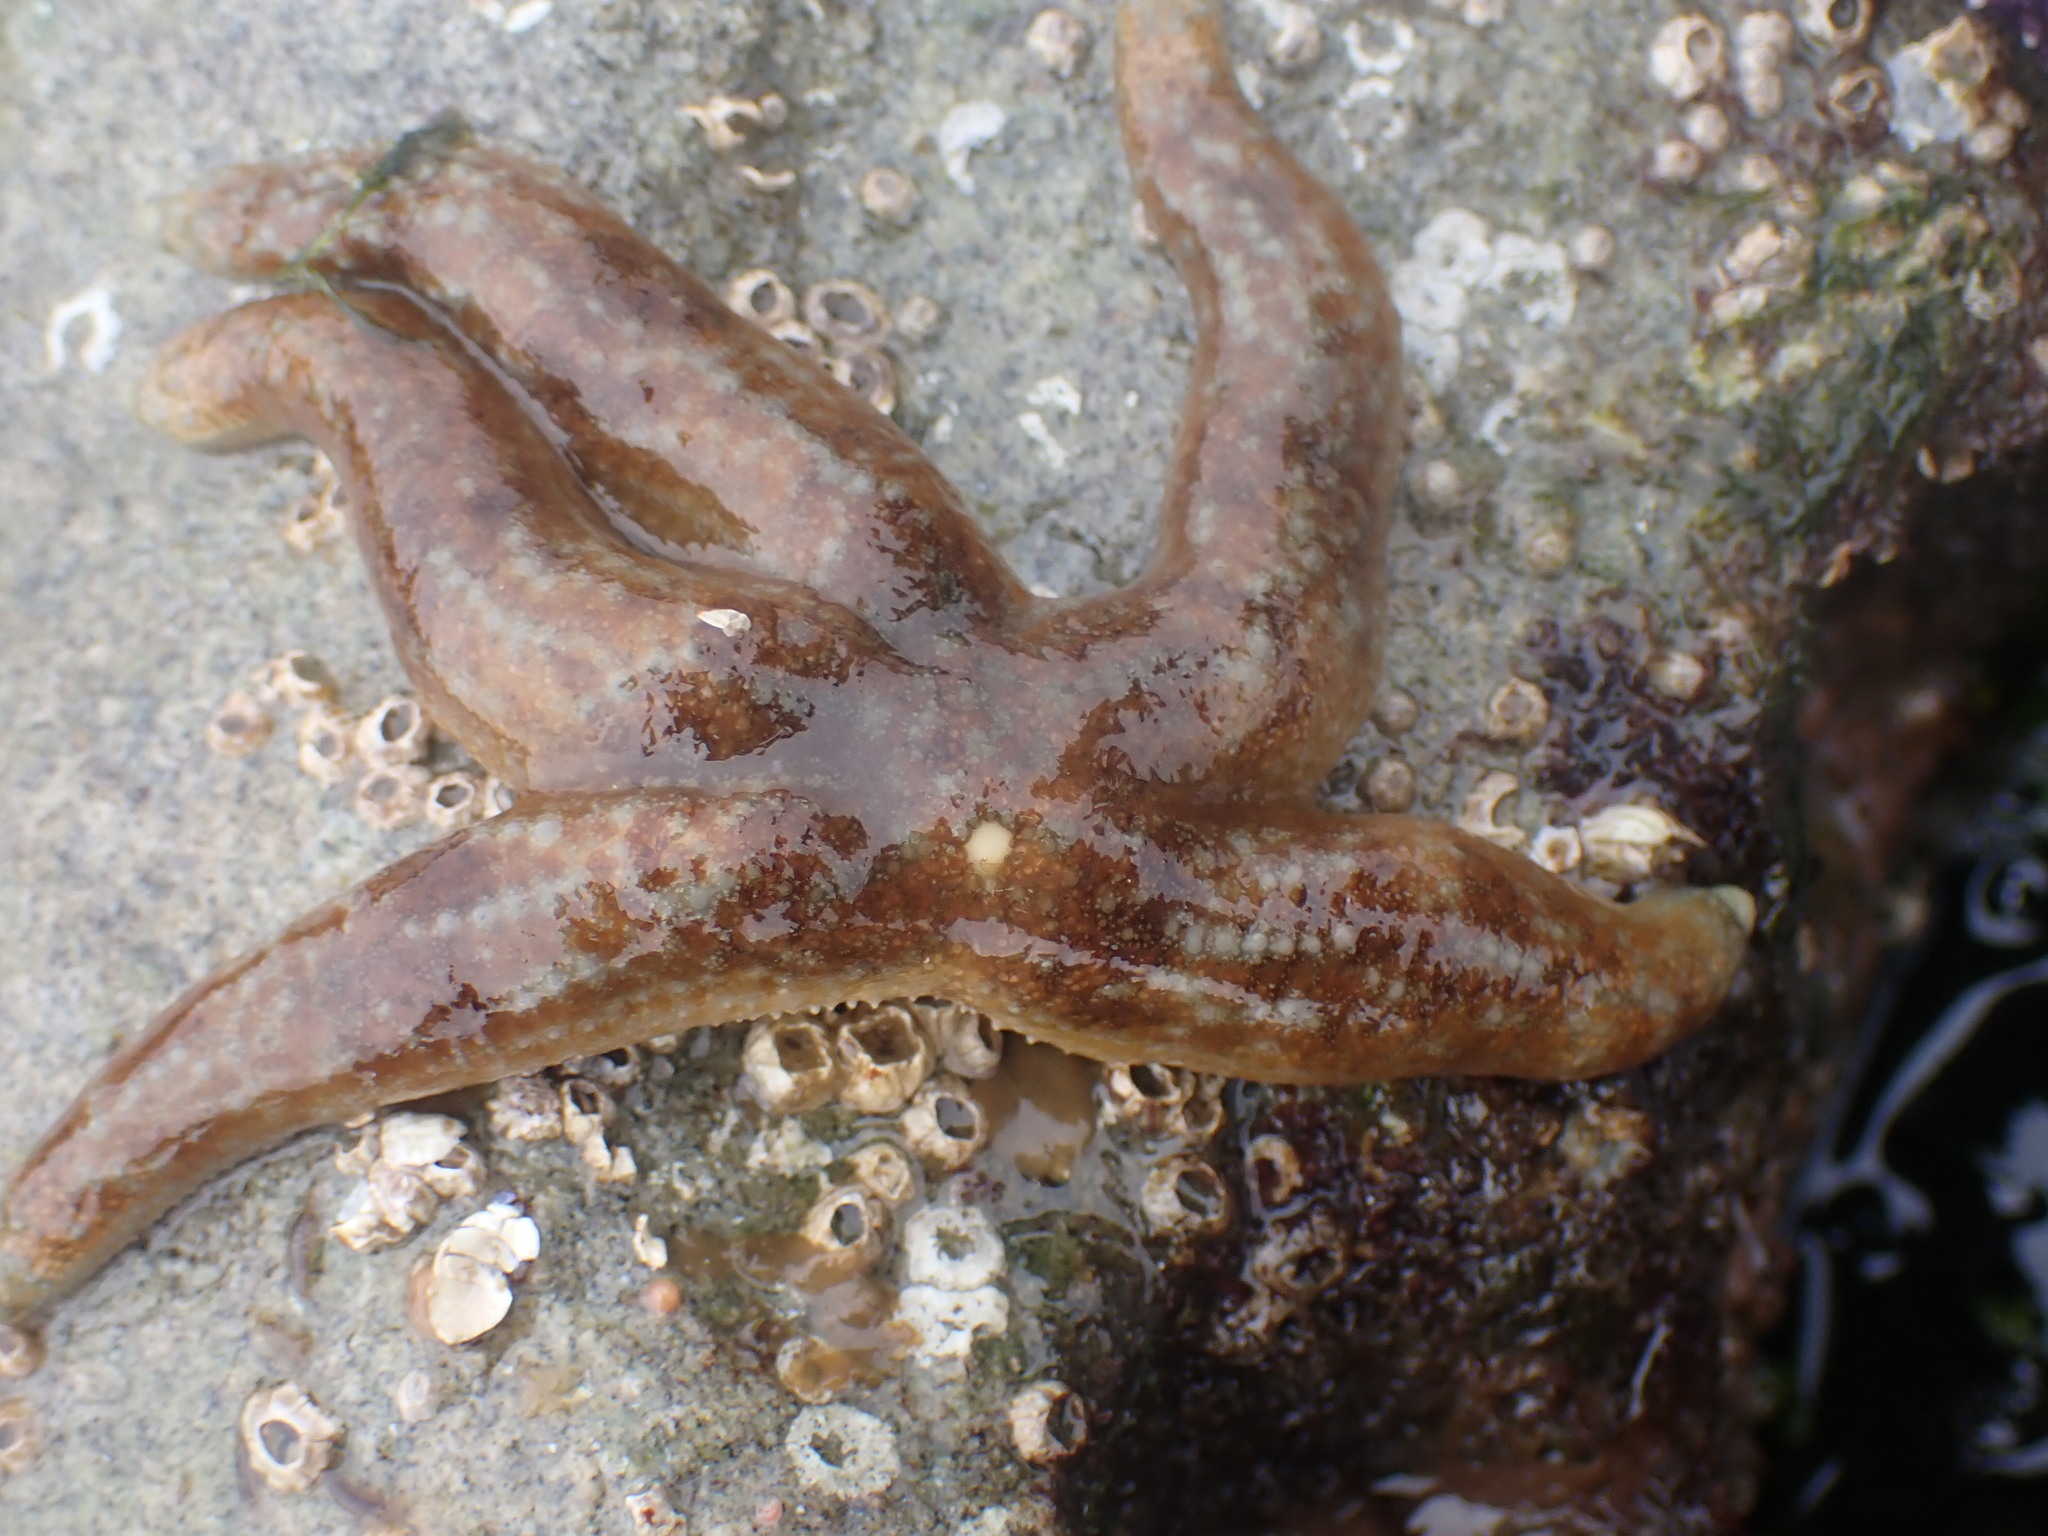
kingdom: Animalia
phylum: Echinodermata
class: Asteroidea
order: Forcipulatida
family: Asteriidae
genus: Evasterias
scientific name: Evasterias troschelii
